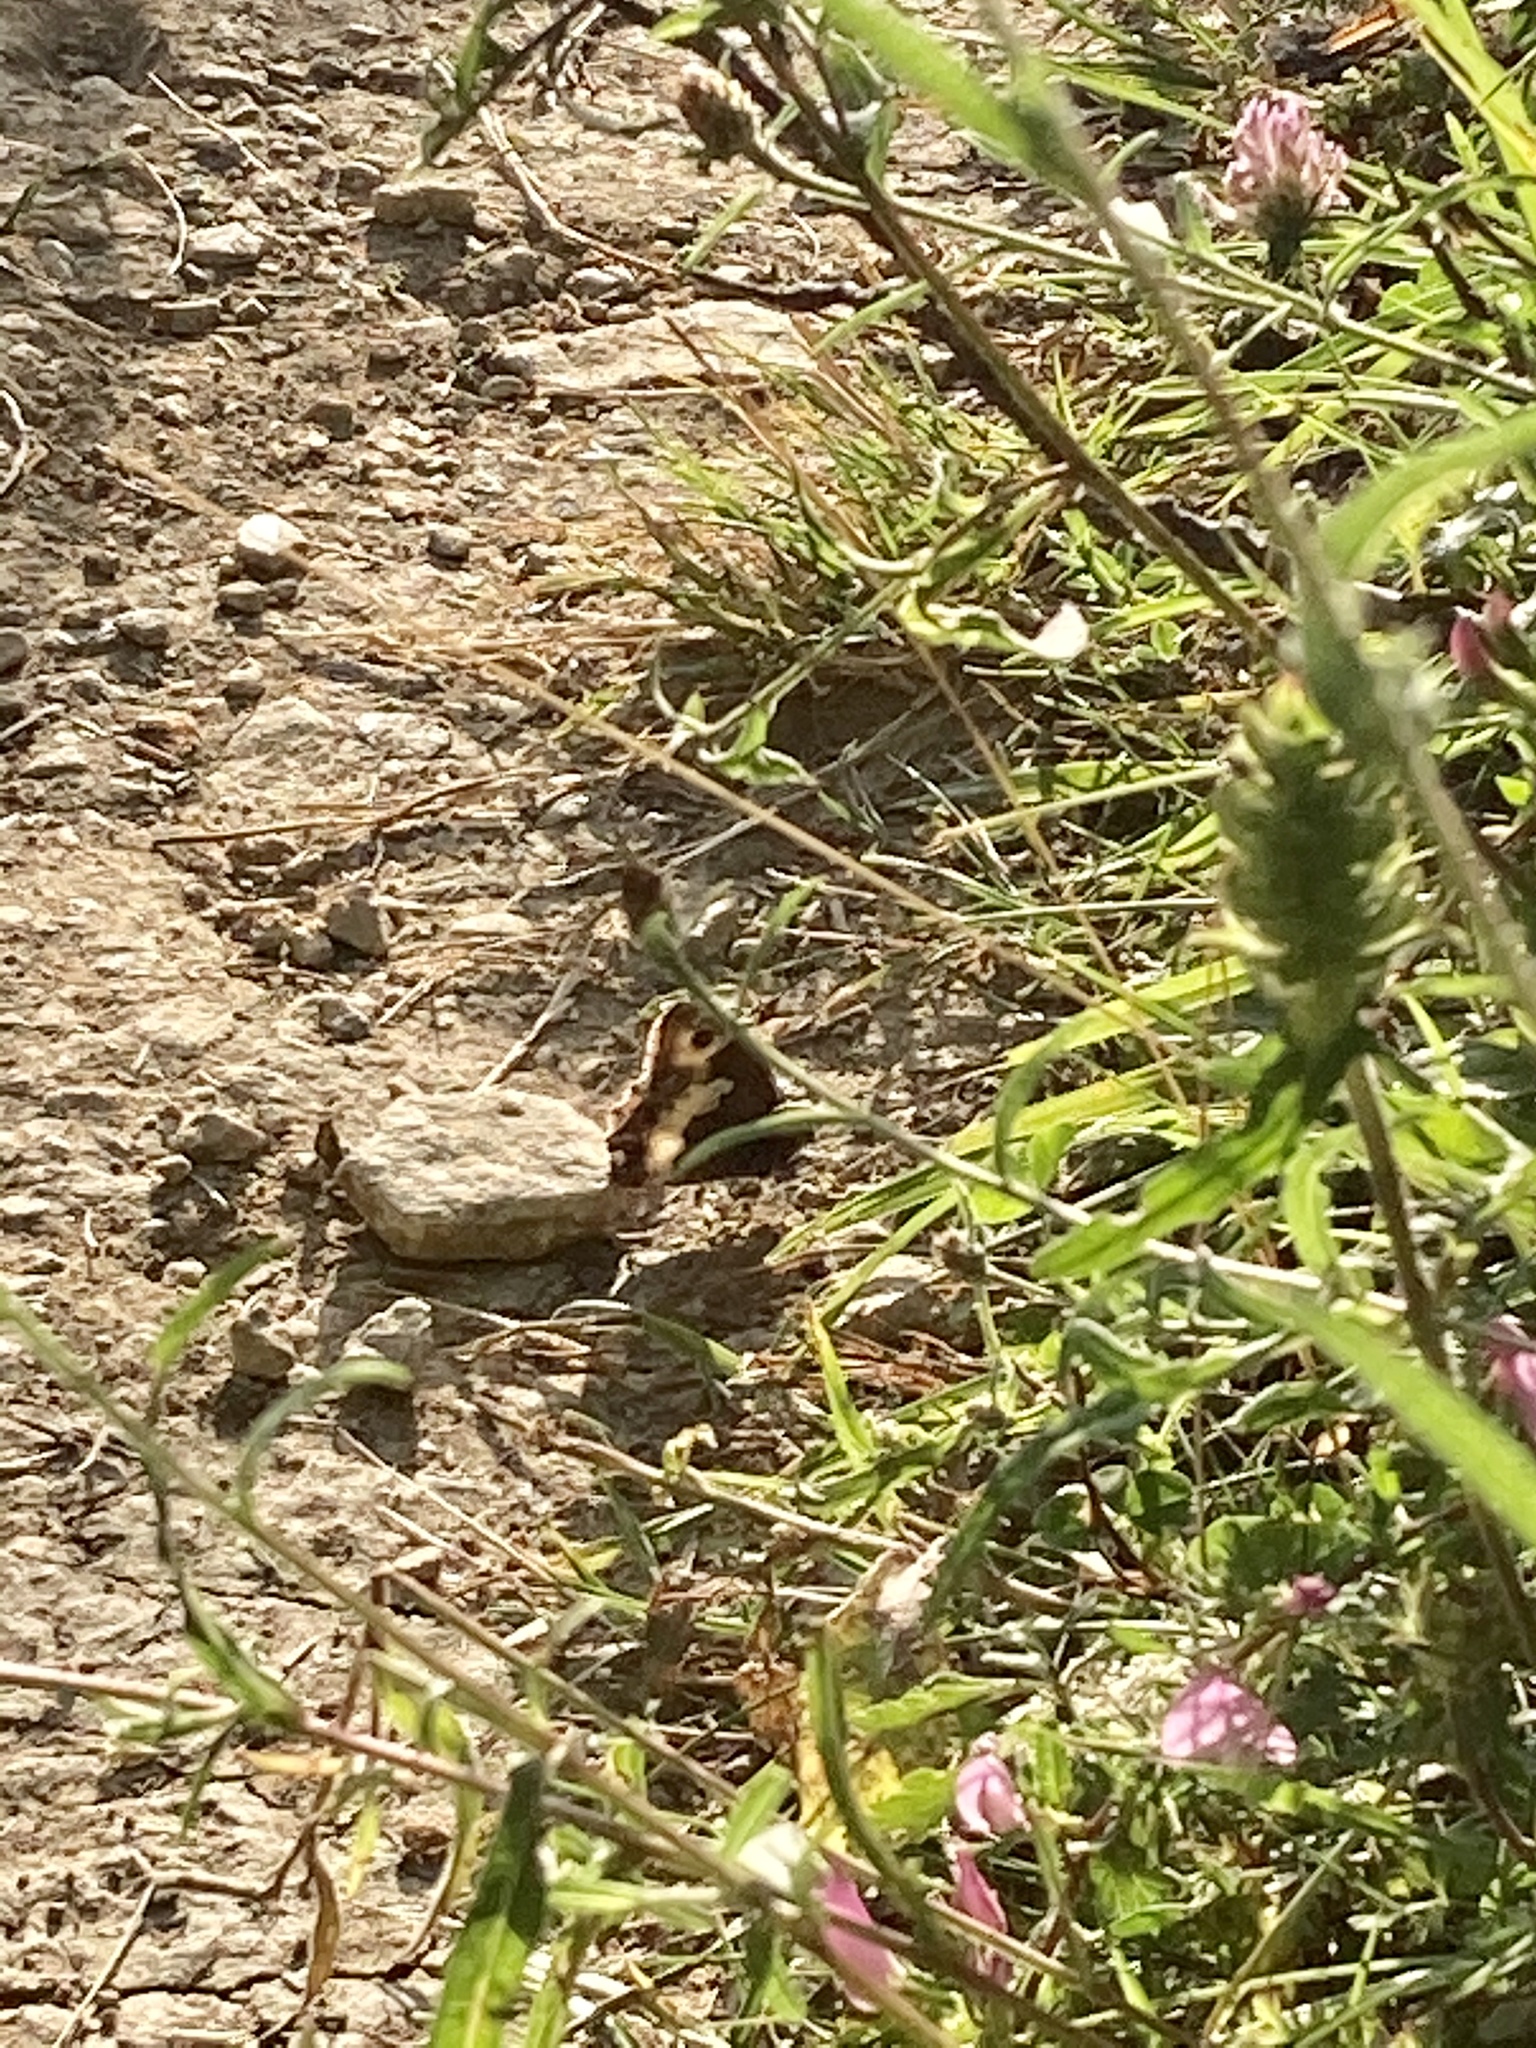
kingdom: Animalia
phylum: Arthropoda
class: Insecta
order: Lepidoptera
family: Nymphalidae
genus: Hipparchia
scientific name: Hipparchia fagi
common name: Woodland grayling
